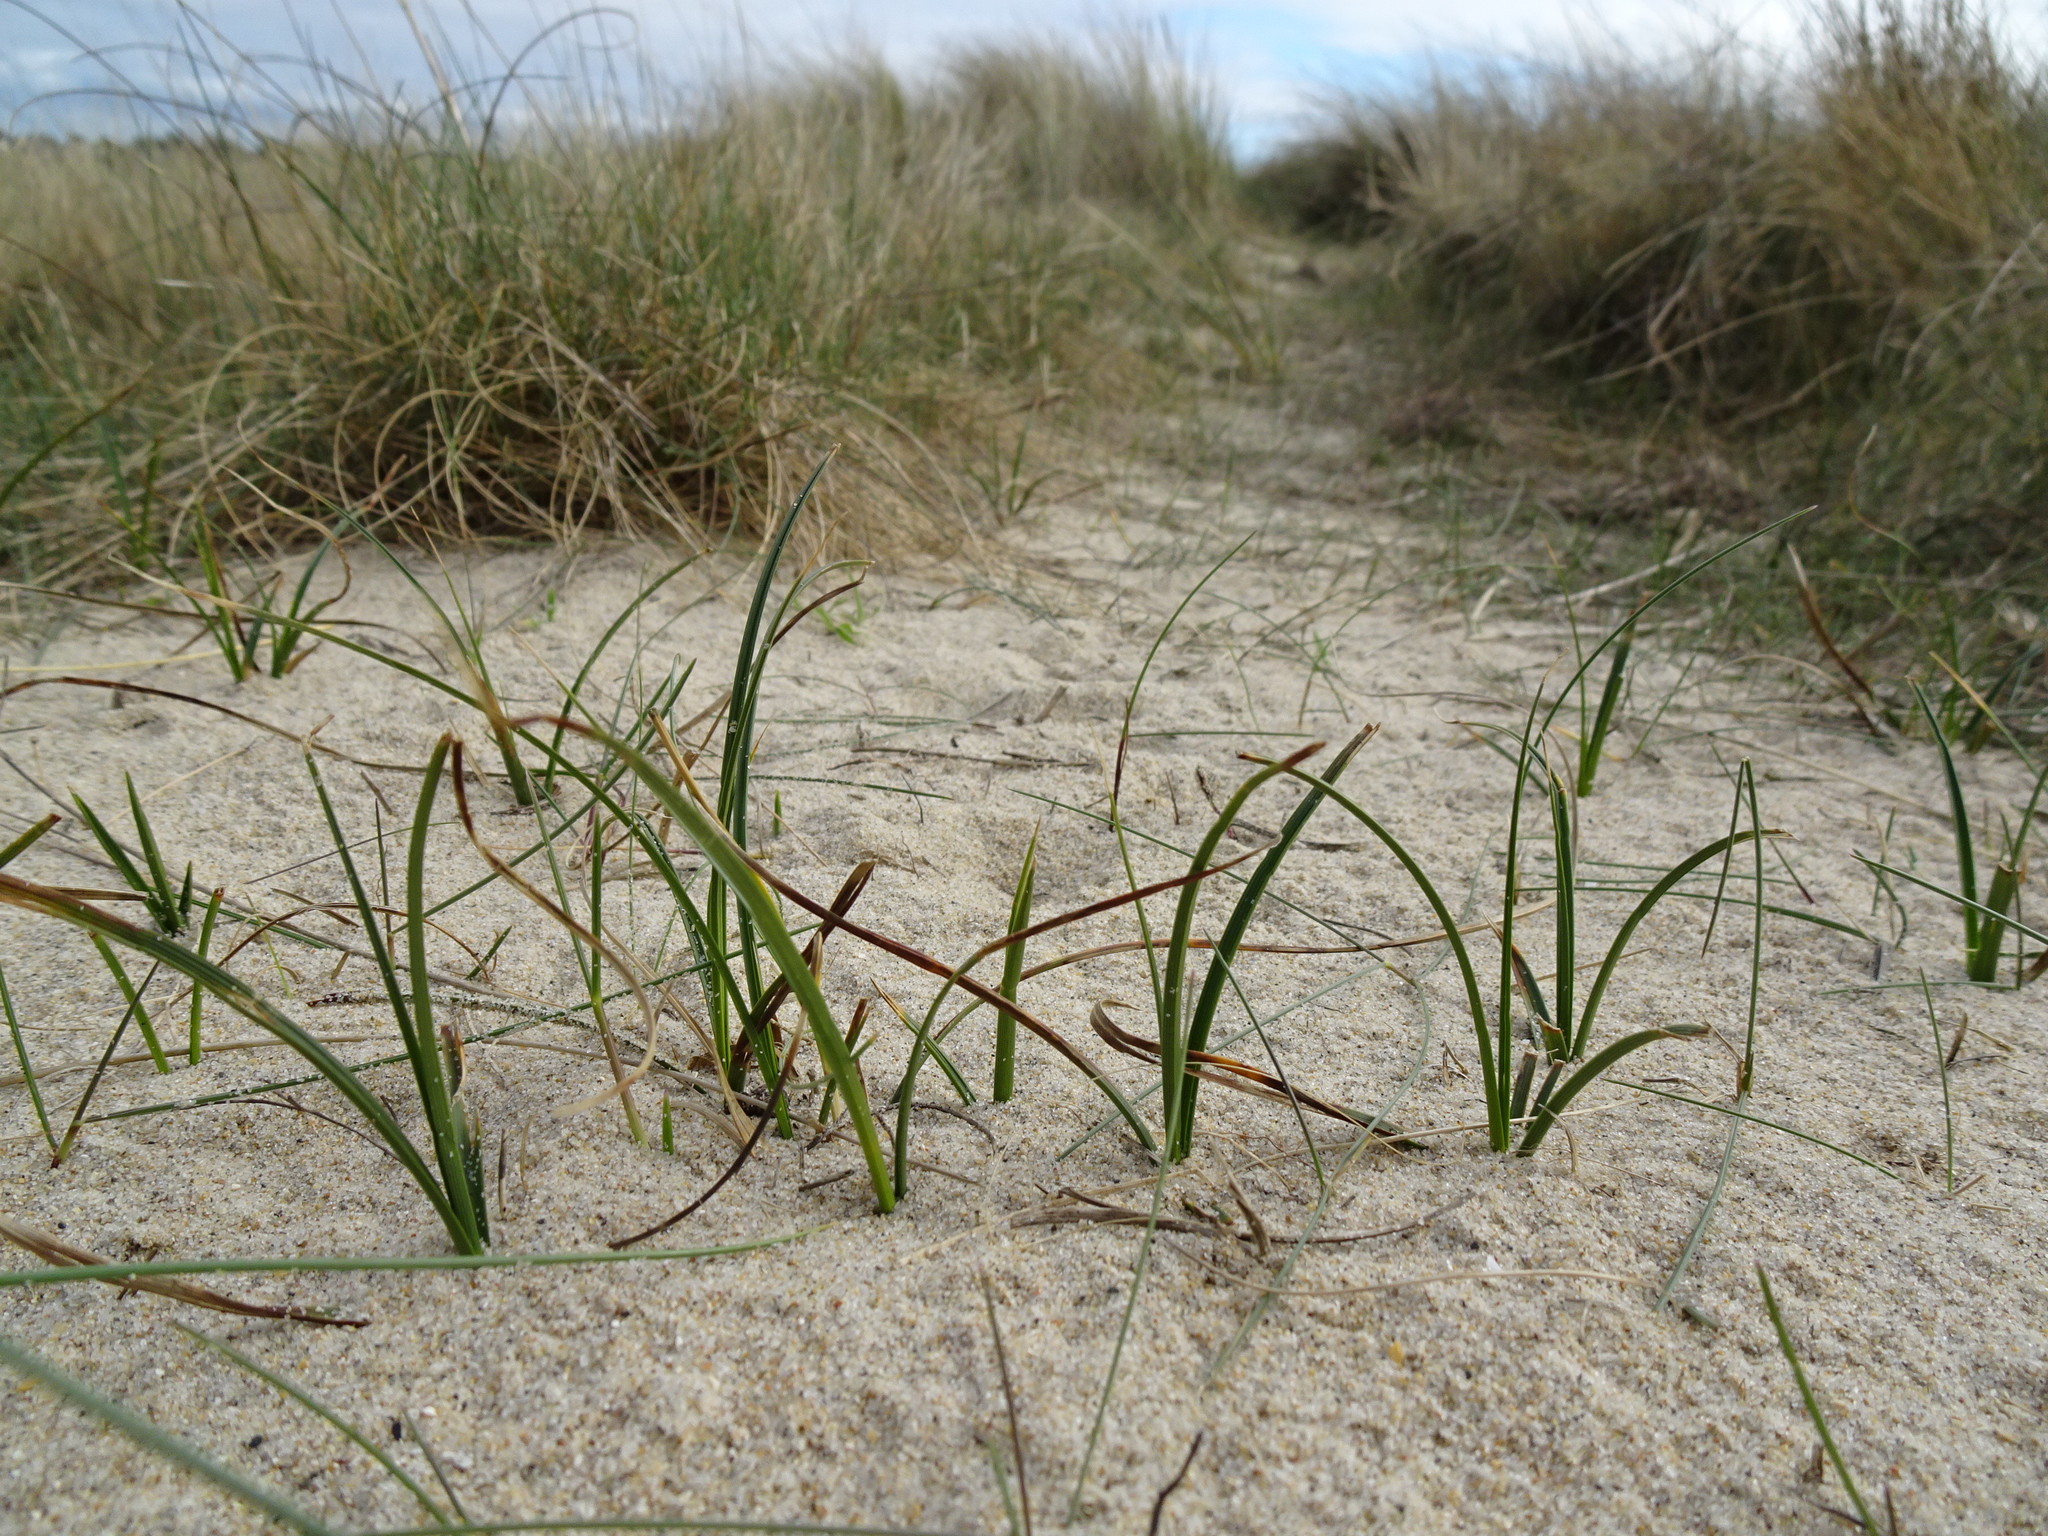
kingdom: Plantae
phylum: Tracheophyta
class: Liliopsida
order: Poales
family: Cyperaceae
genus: Carex
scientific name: Carex arenaria
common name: Sand sedge
